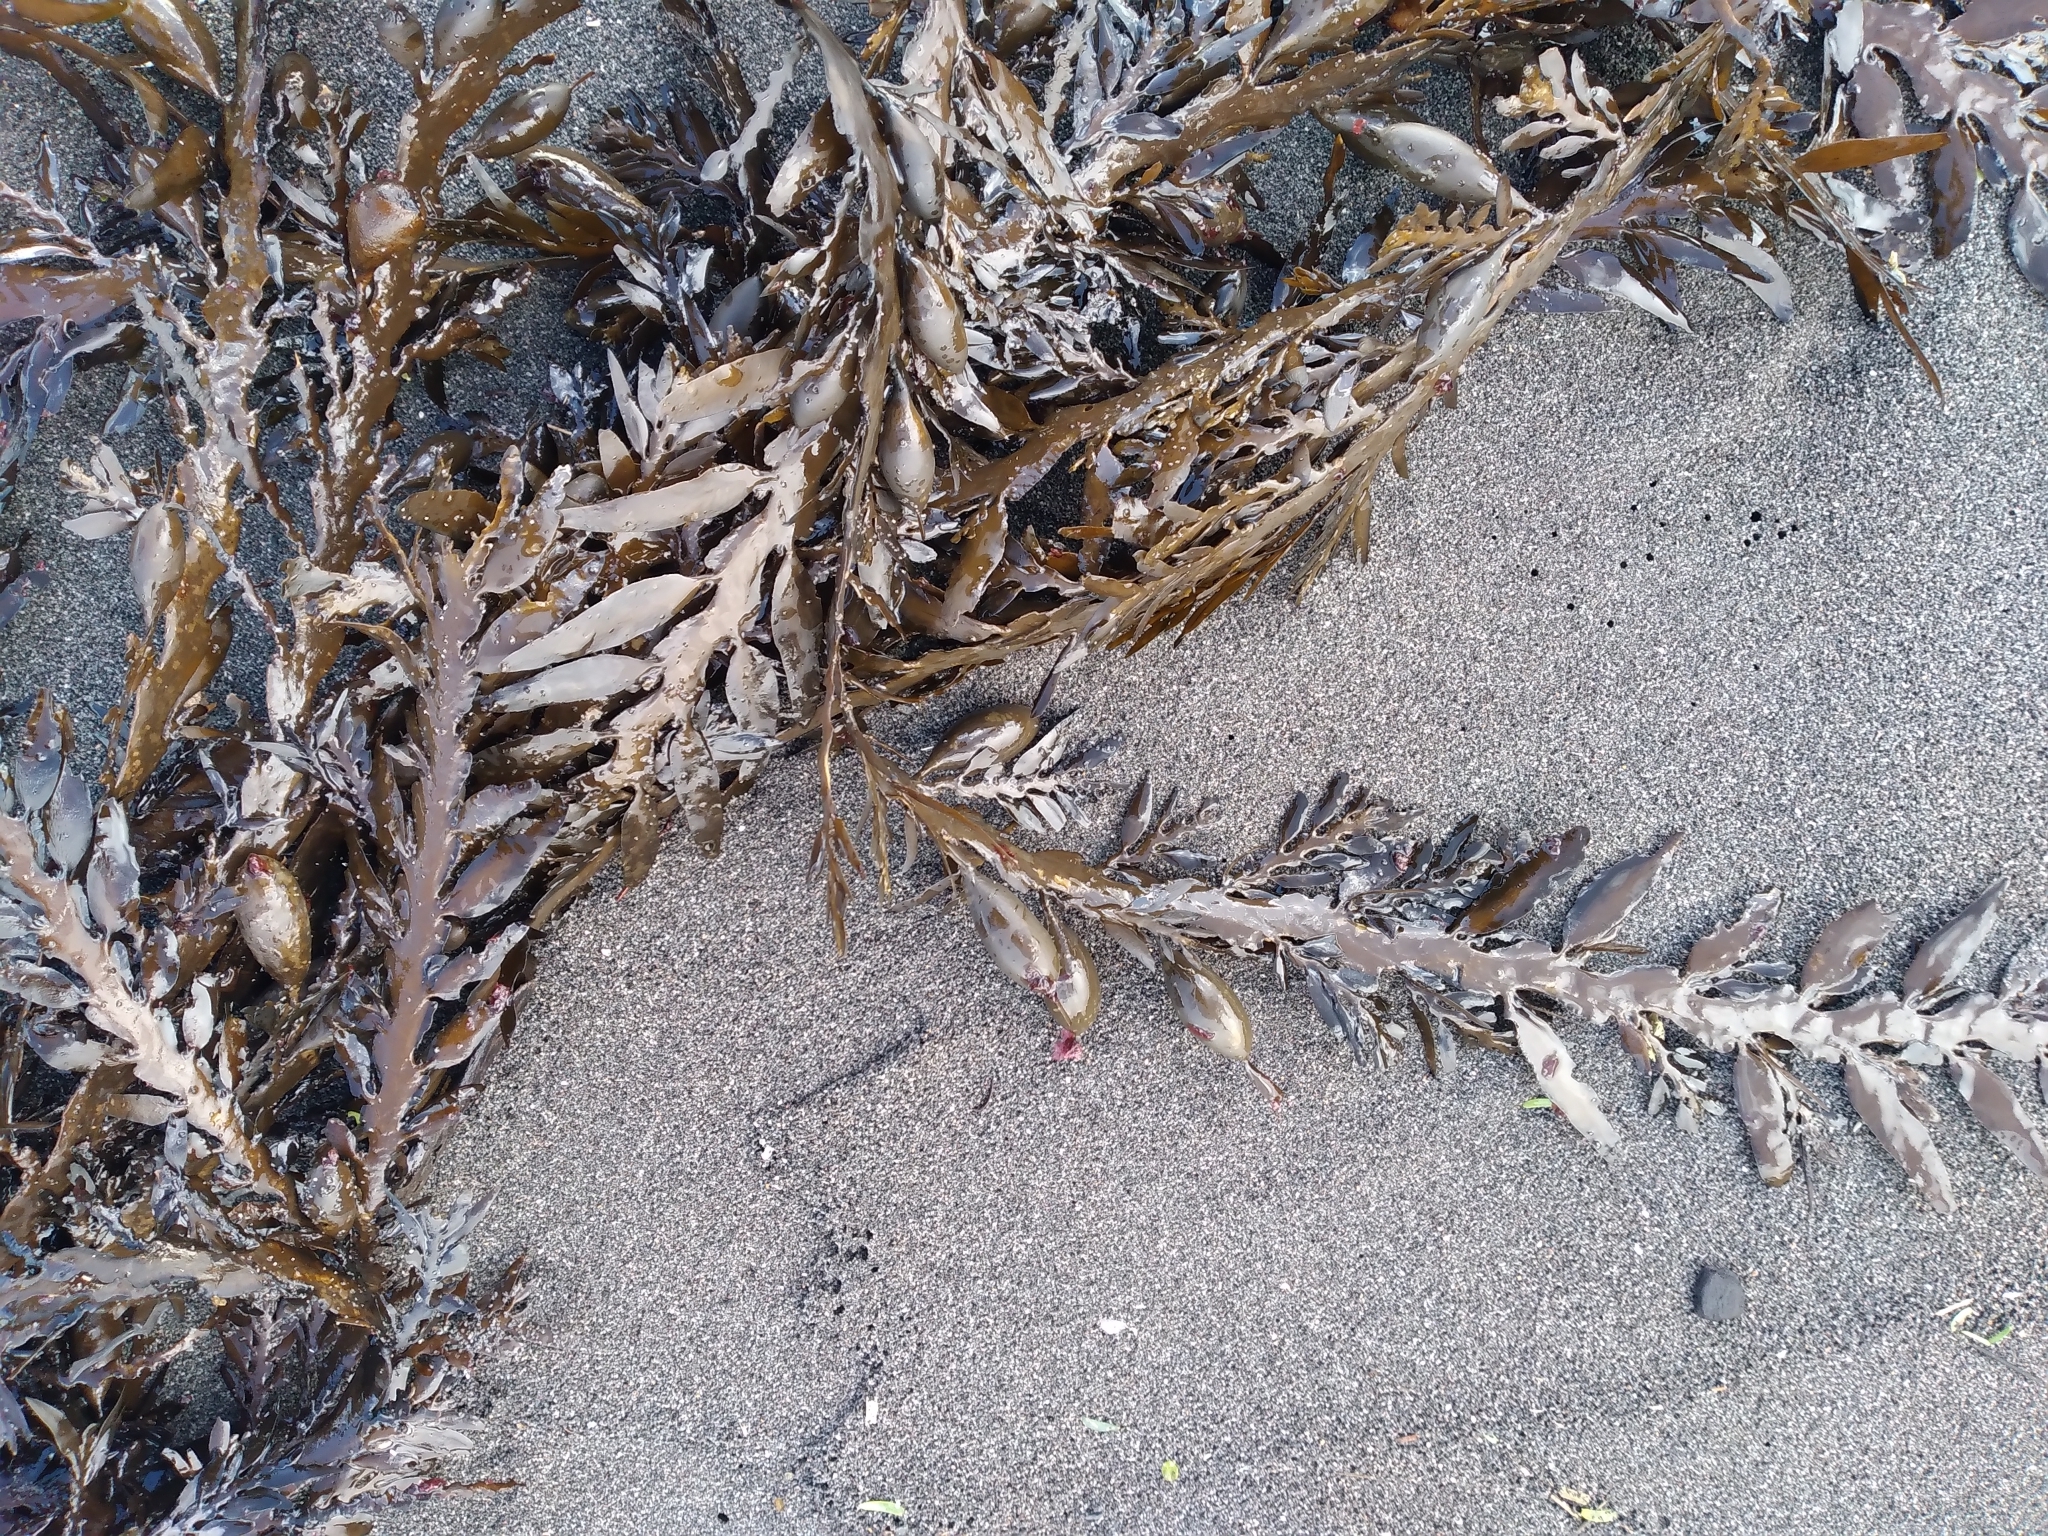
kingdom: Chromista
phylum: Ochrophyta
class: Phaeophyceae
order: Fucales
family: Sargassaceae
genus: Carpophyllum
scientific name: Carpophyllum maschalocarpum
